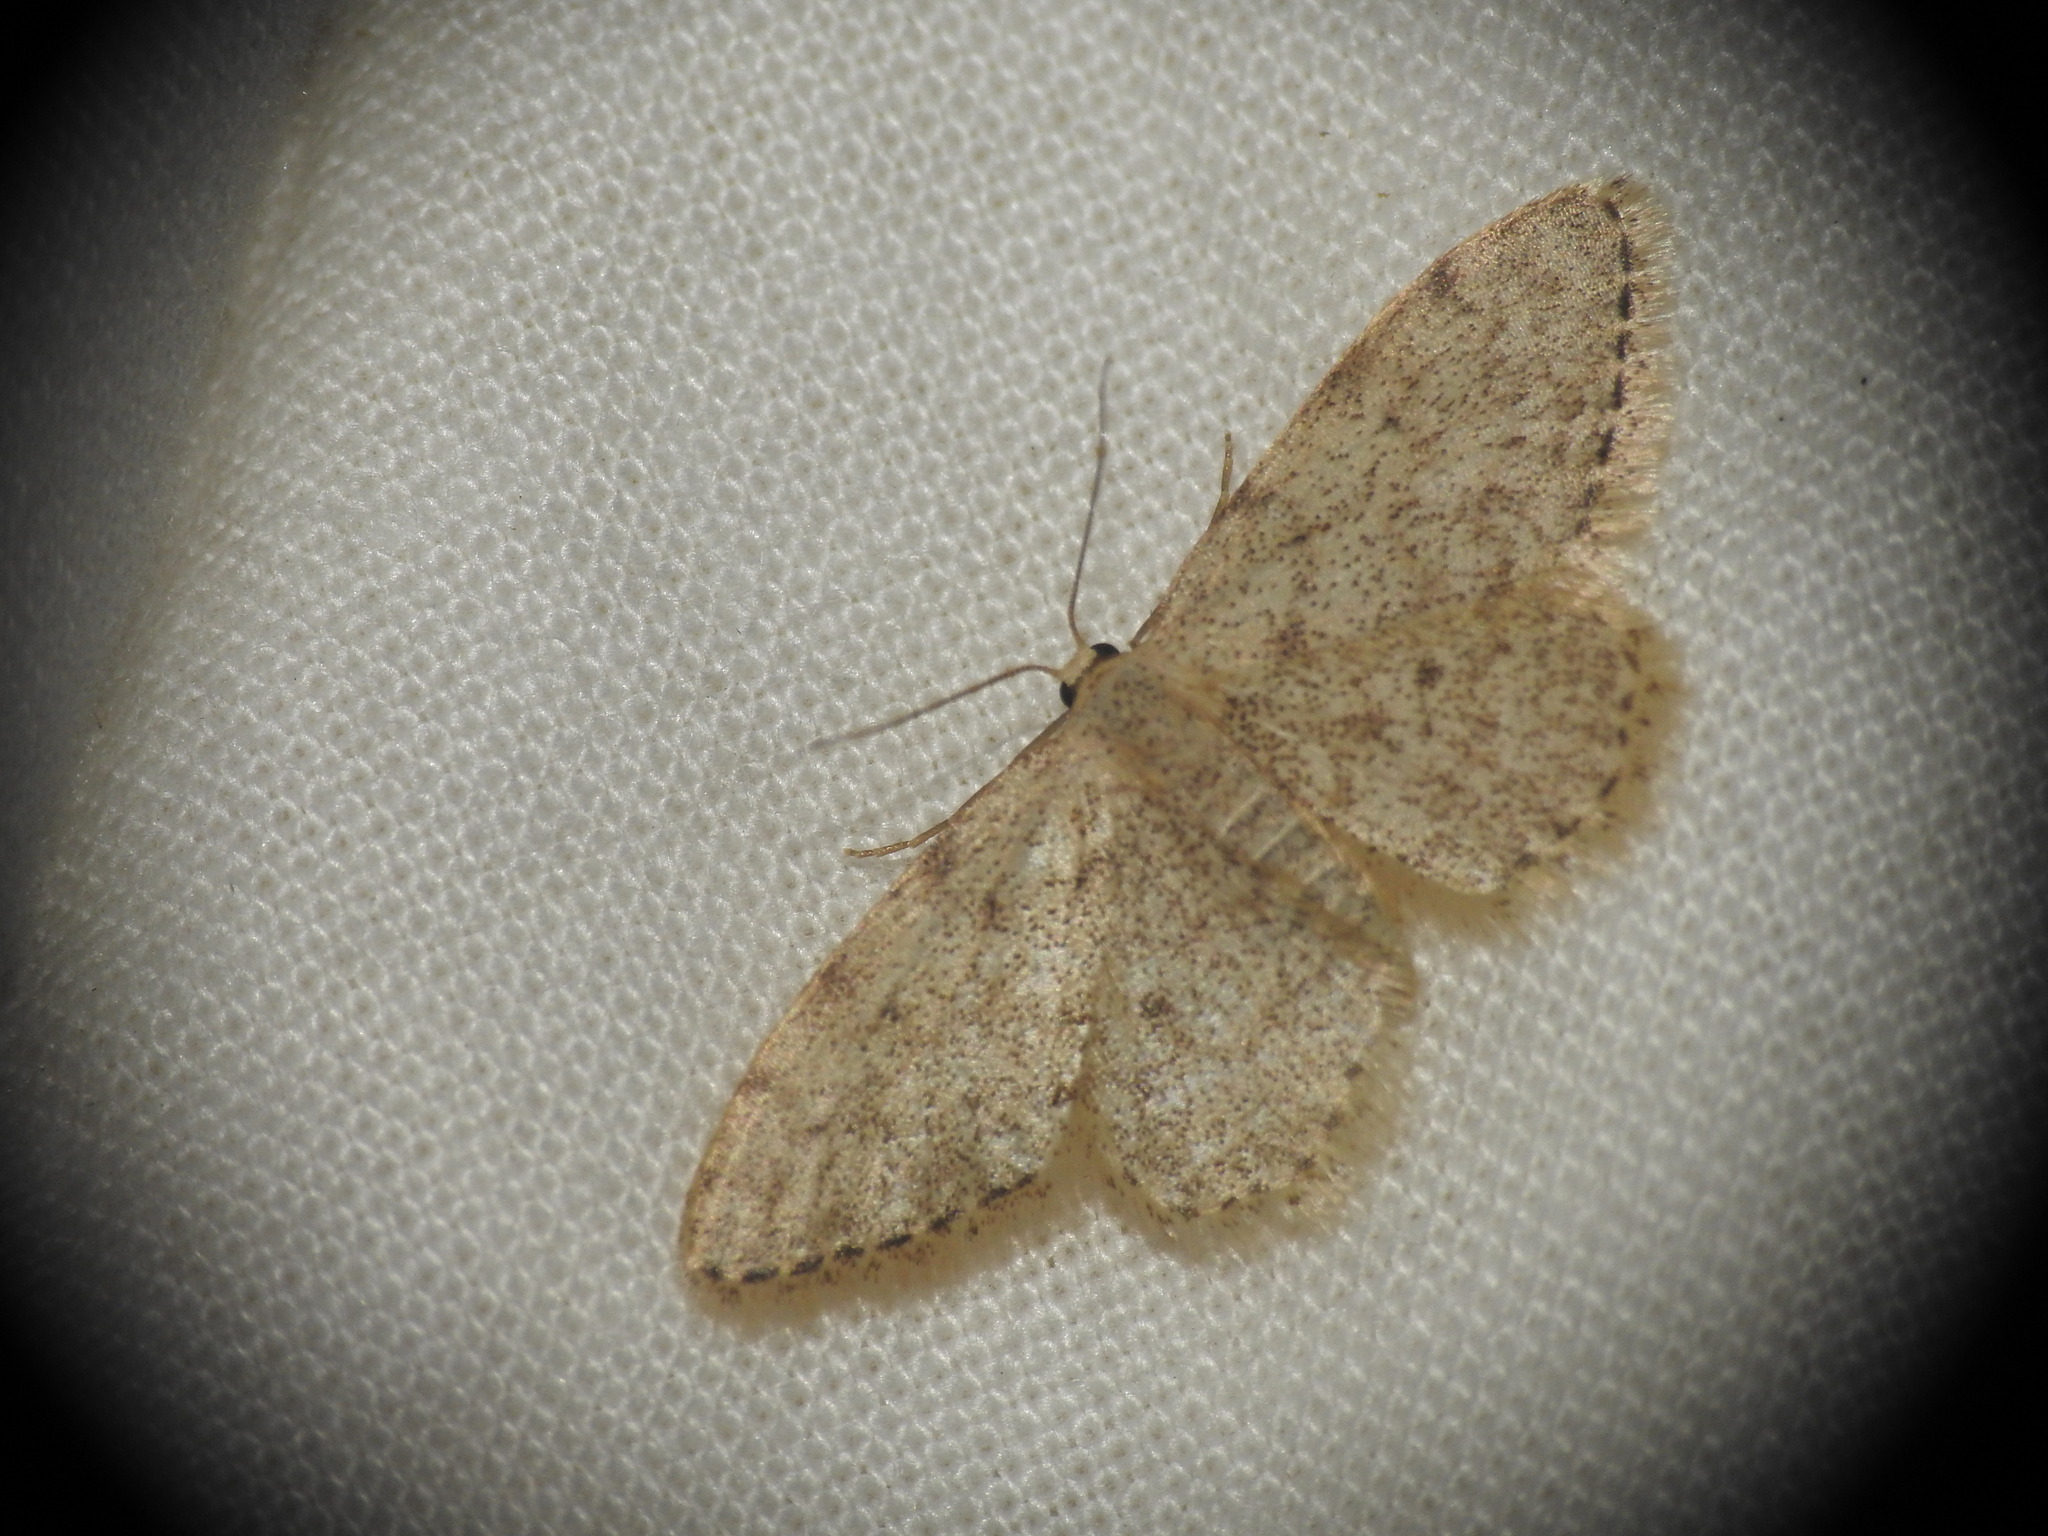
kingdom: Animalia
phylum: Arthropoda
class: Insecta
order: Lepidoptera
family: Geometridae
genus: Idaea
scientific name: Idaea cervantaria
